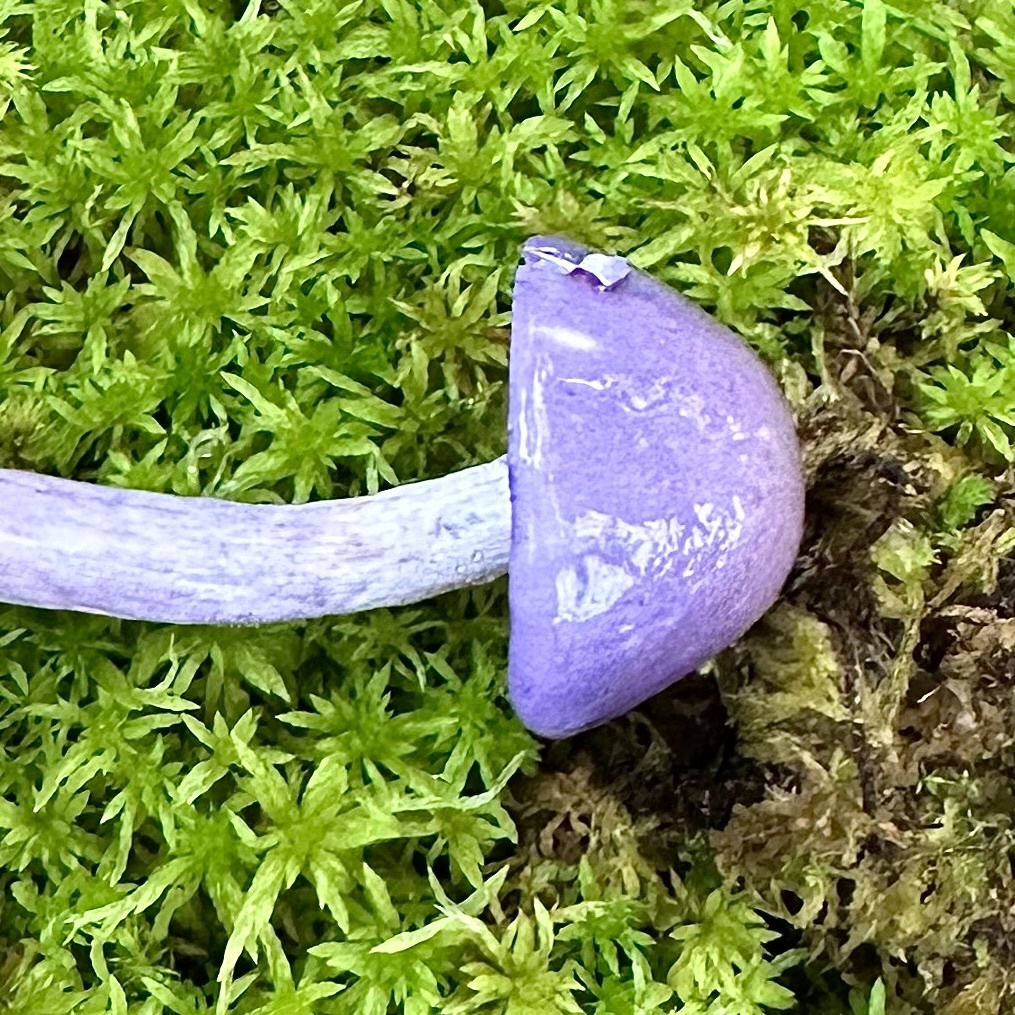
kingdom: Fungi
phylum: Basidiomycota
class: Agaricomycetes
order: Agaricales
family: Cortinariaceae
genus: Cortinarius
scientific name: Cortinarius iodes
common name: Viscid violet cort
